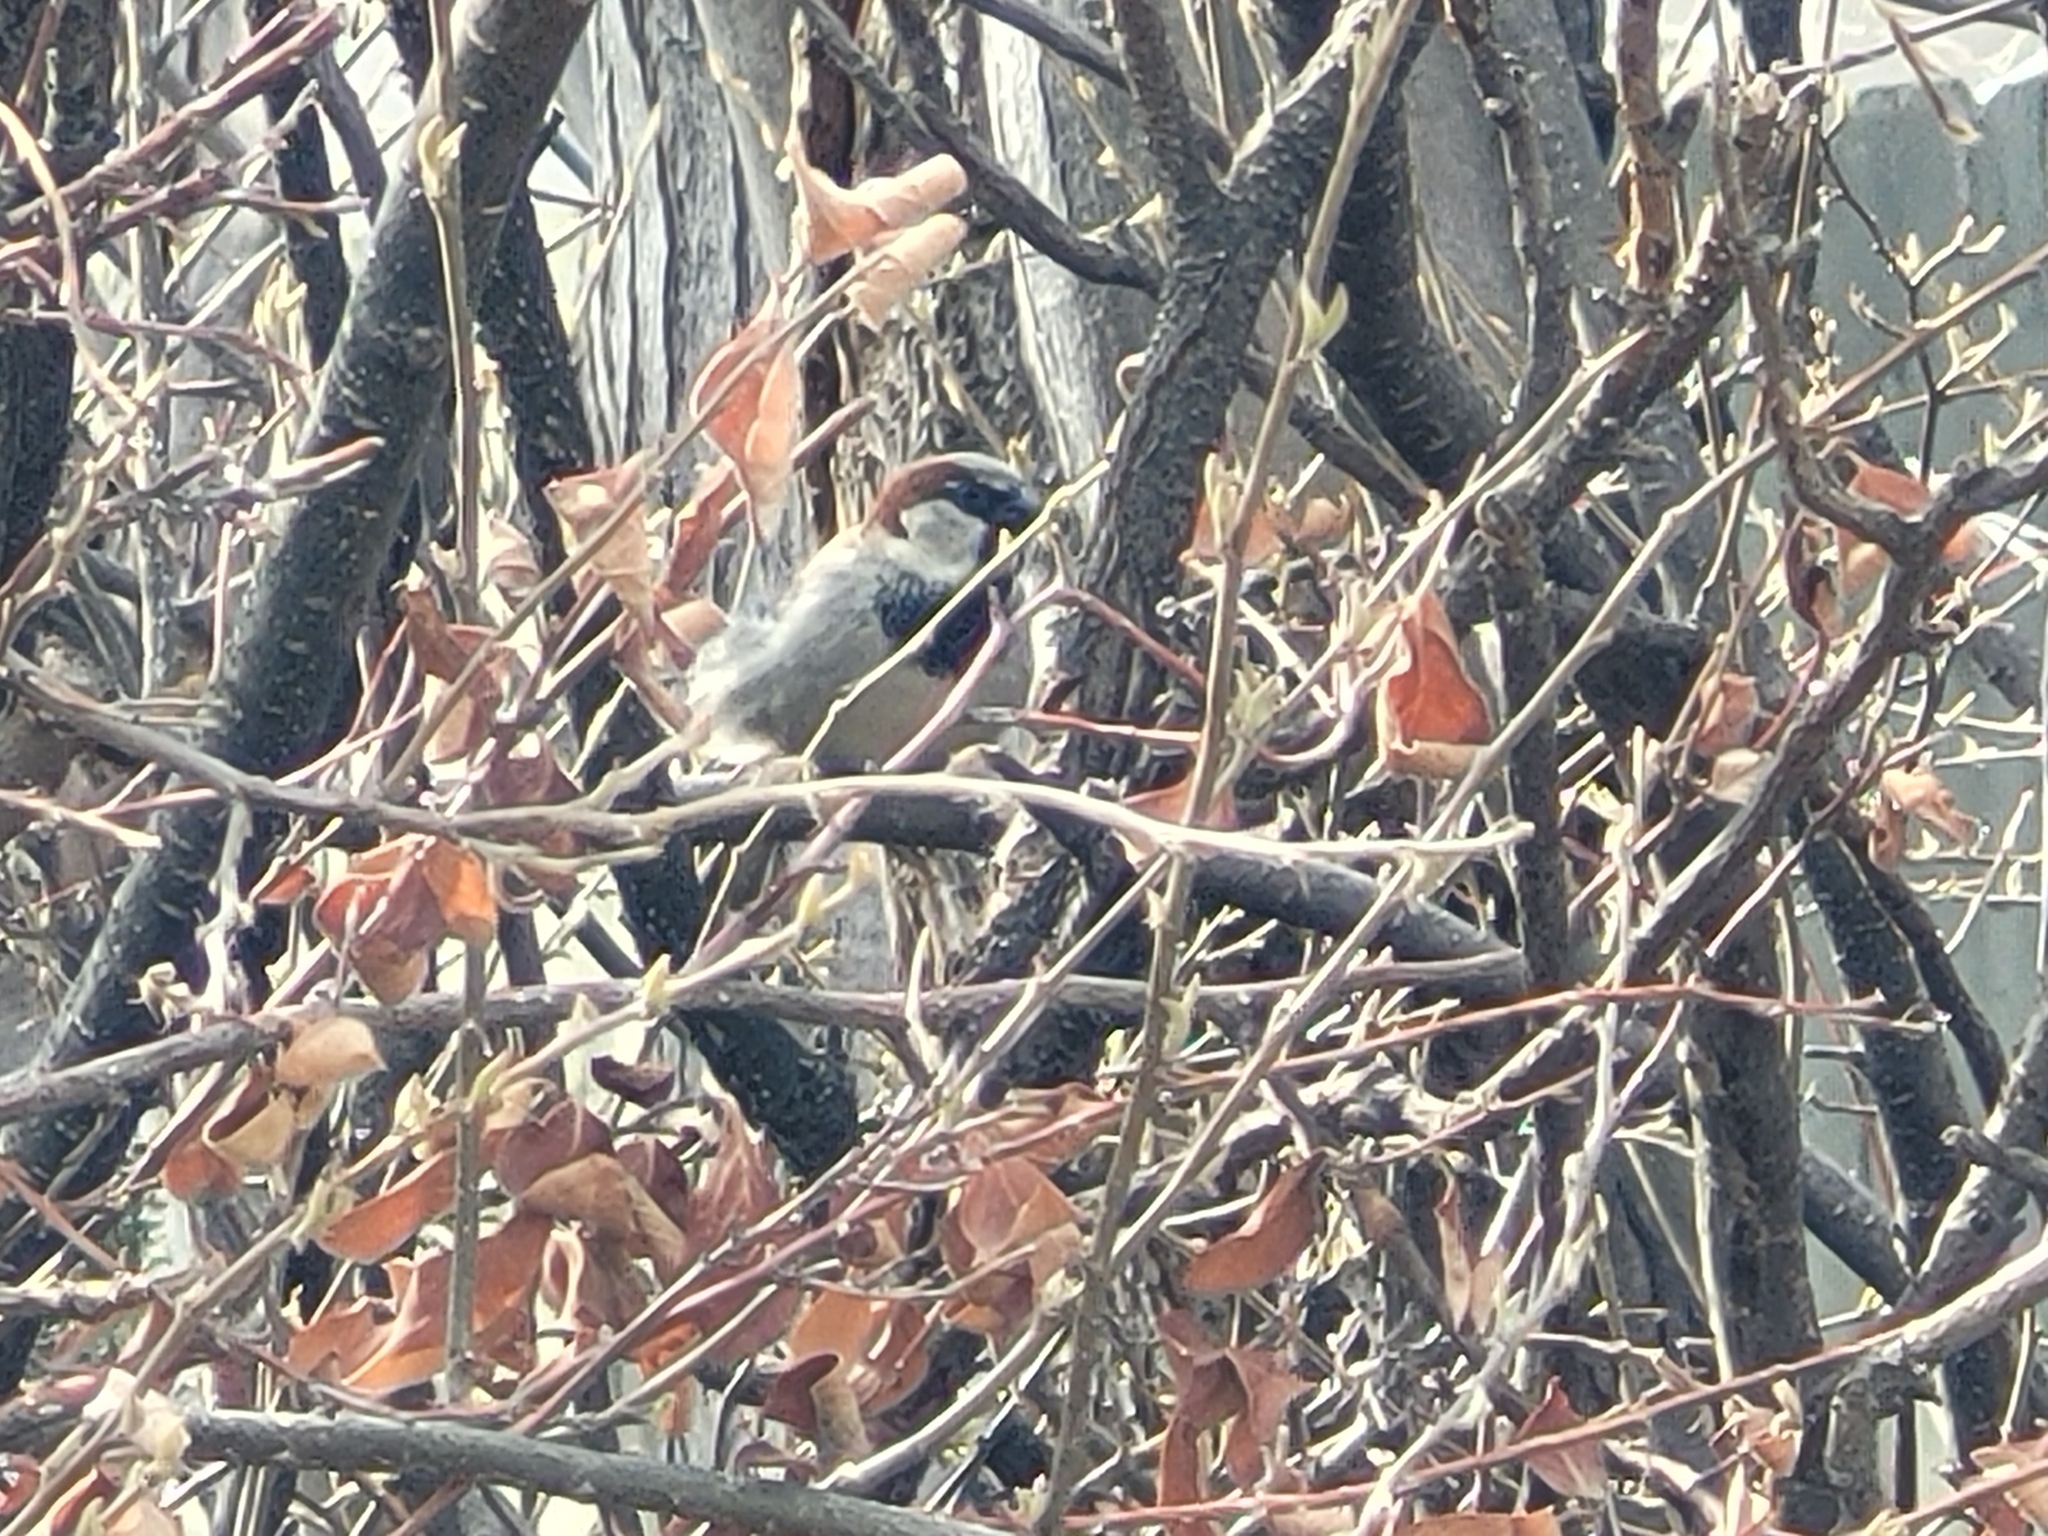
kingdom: Animalia
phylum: Chordata
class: Aves
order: Passeriformes
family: Passeridae
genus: Passer
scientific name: Passer domesticus
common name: House sparrow
